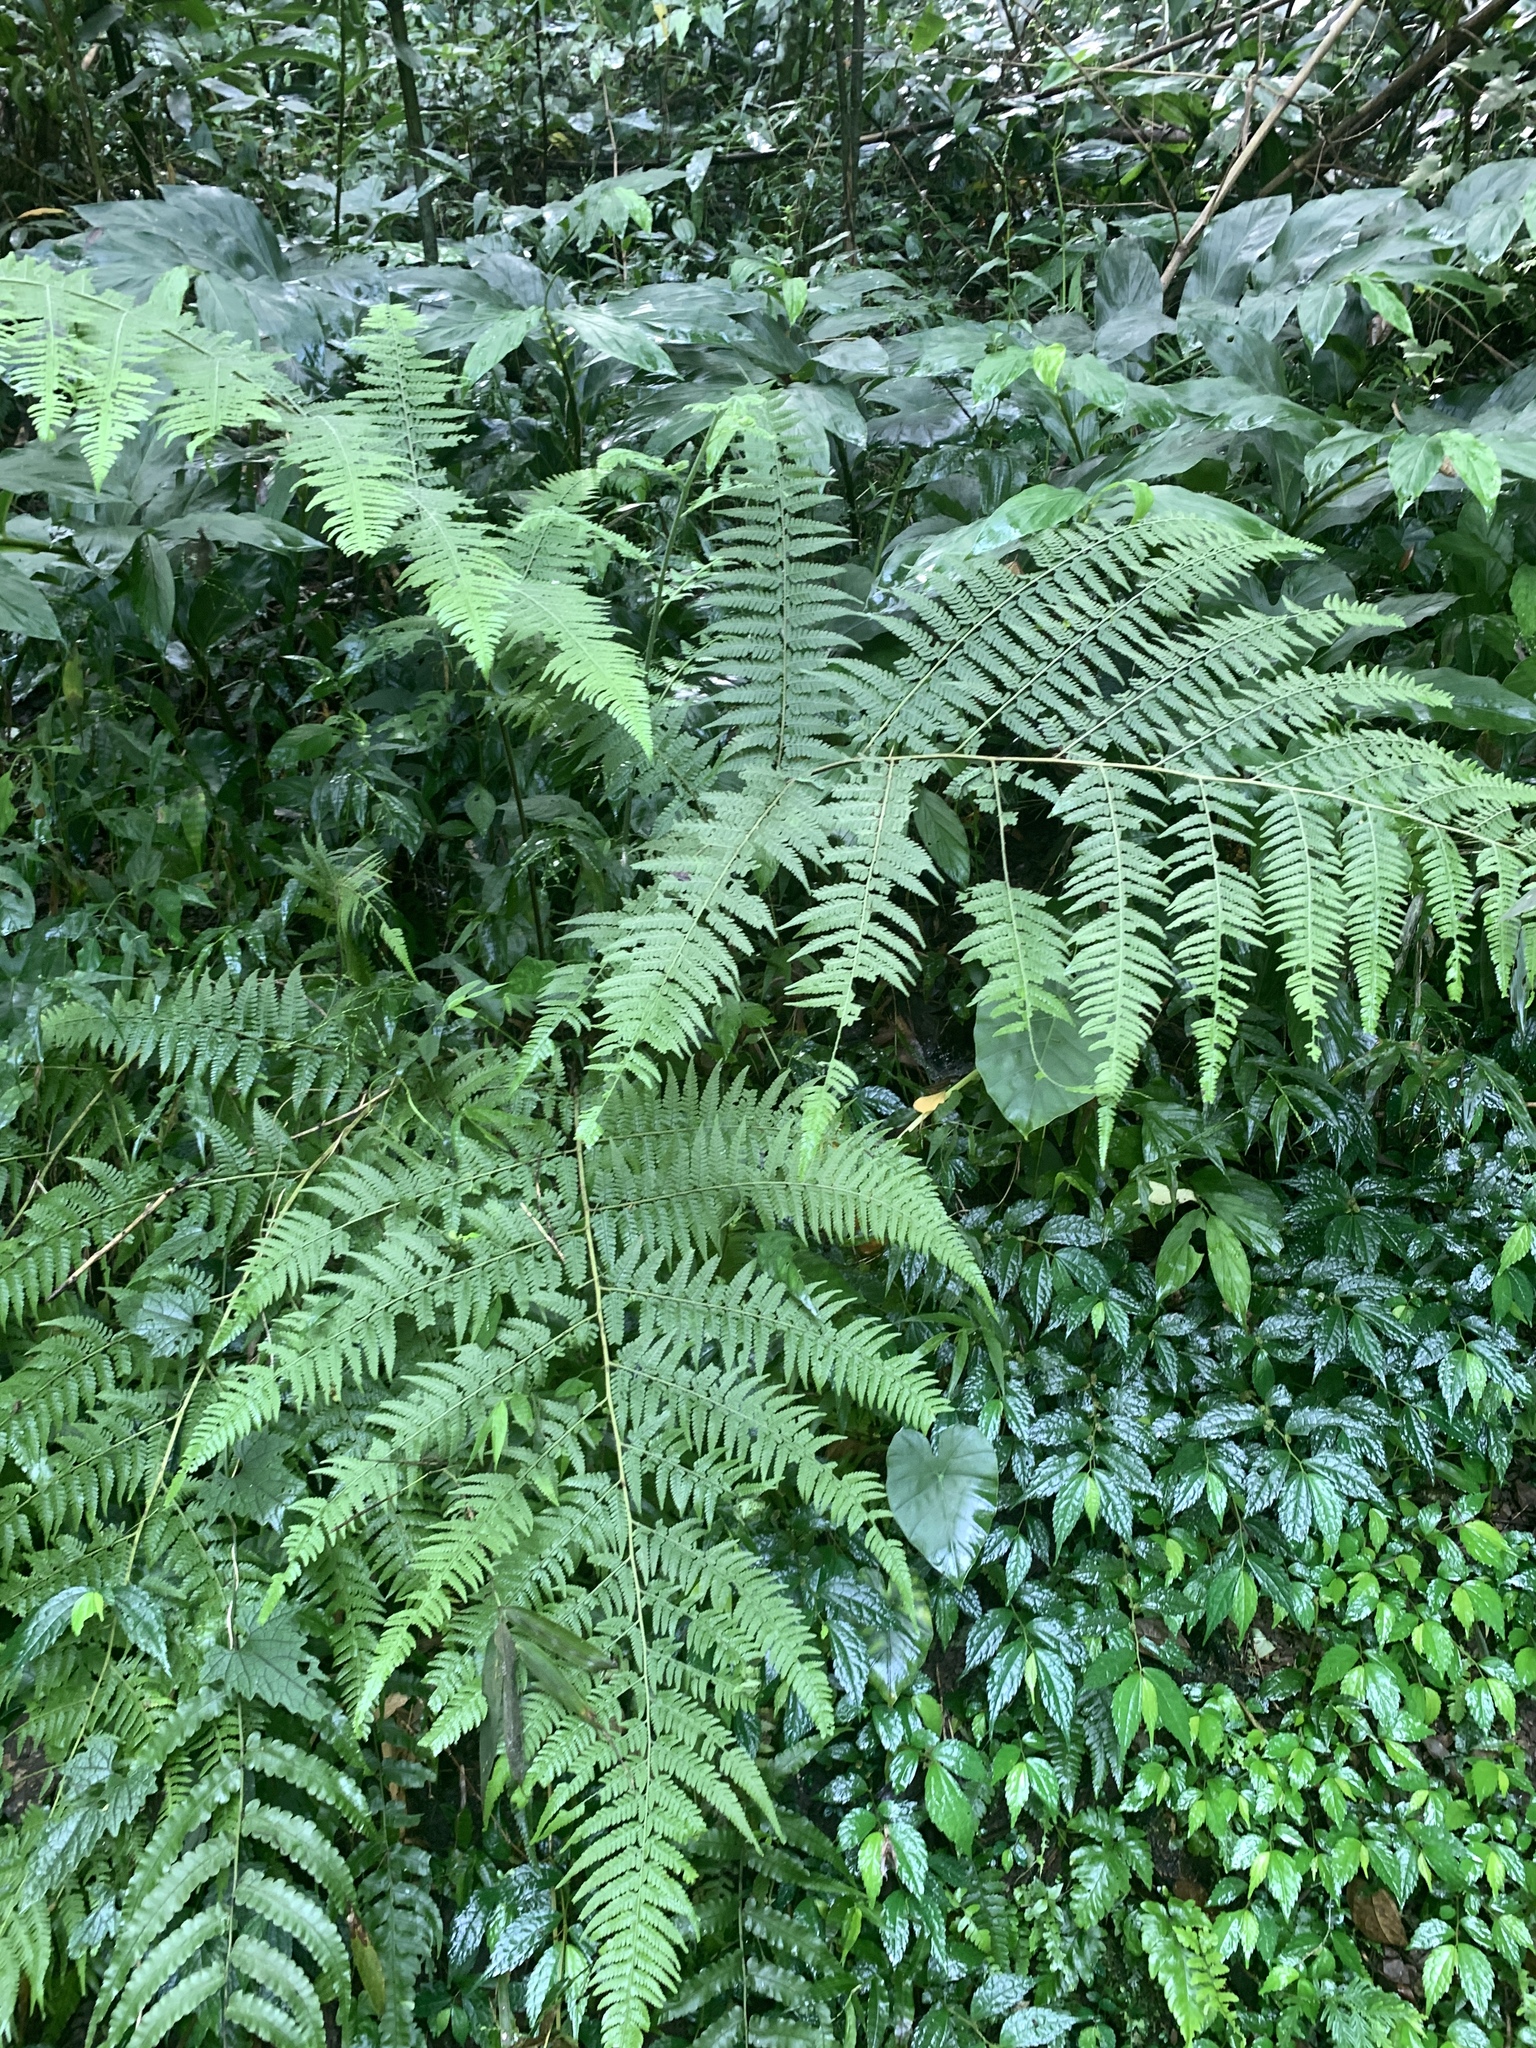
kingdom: Plantae
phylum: Tracheophyta
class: Polypodiopsida
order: Polypodiales
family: Dennstaedtiaceae
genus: Microlepia
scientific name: Microlepia speluncae
